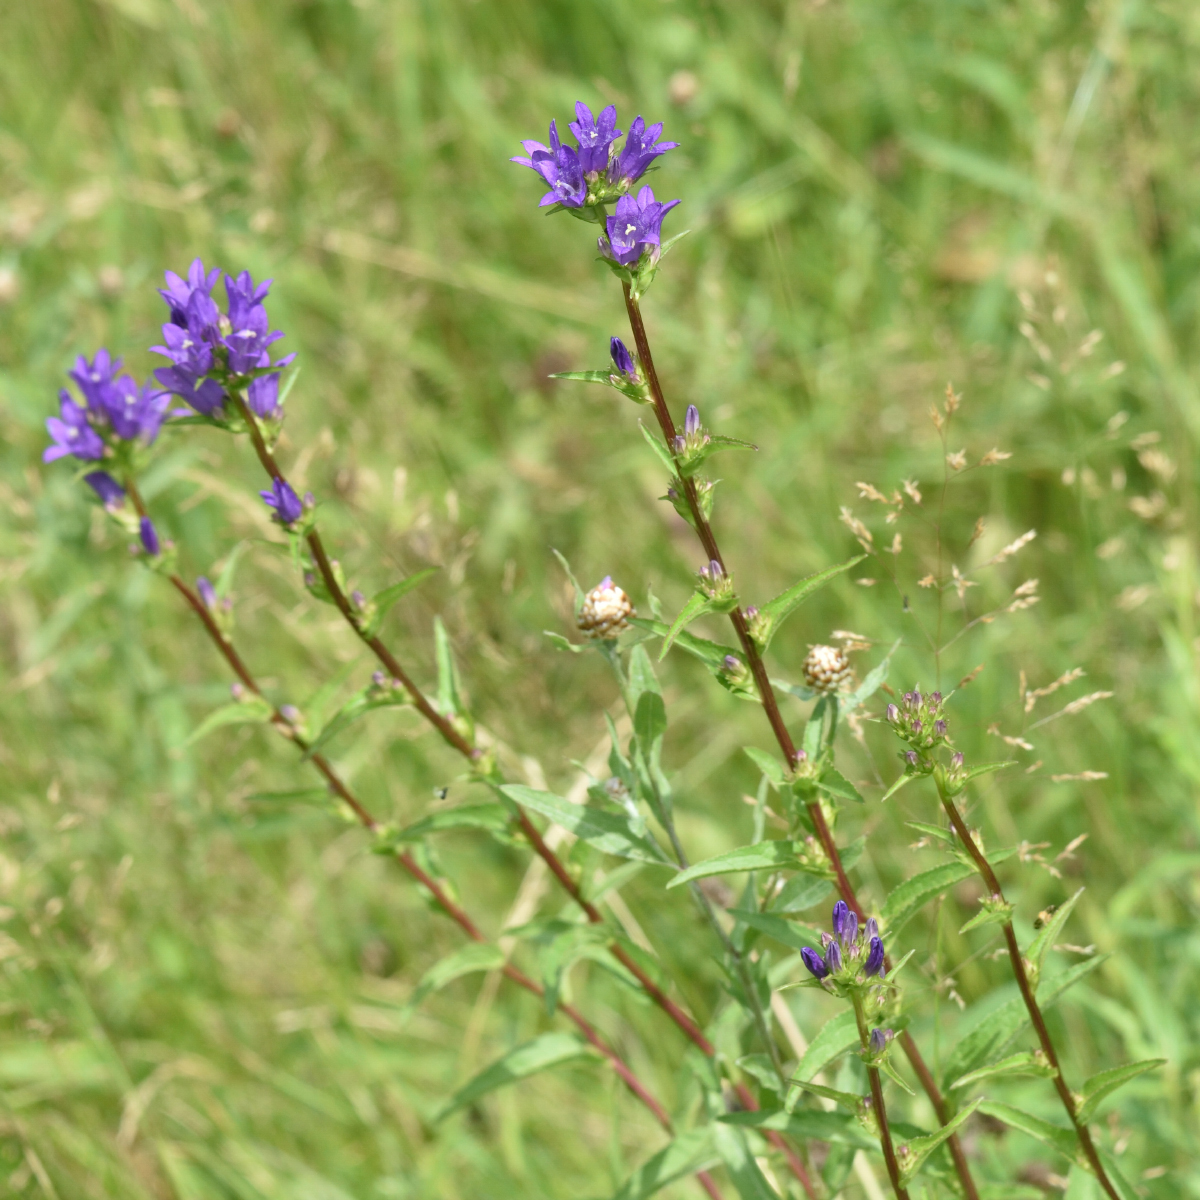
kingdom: Plantae
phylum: Tracheophyta
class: Magnoliopsida
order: Asterales
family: Campanulaceae
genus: Campanula
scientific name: Campanula glomerata
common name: Clustered bellflower
